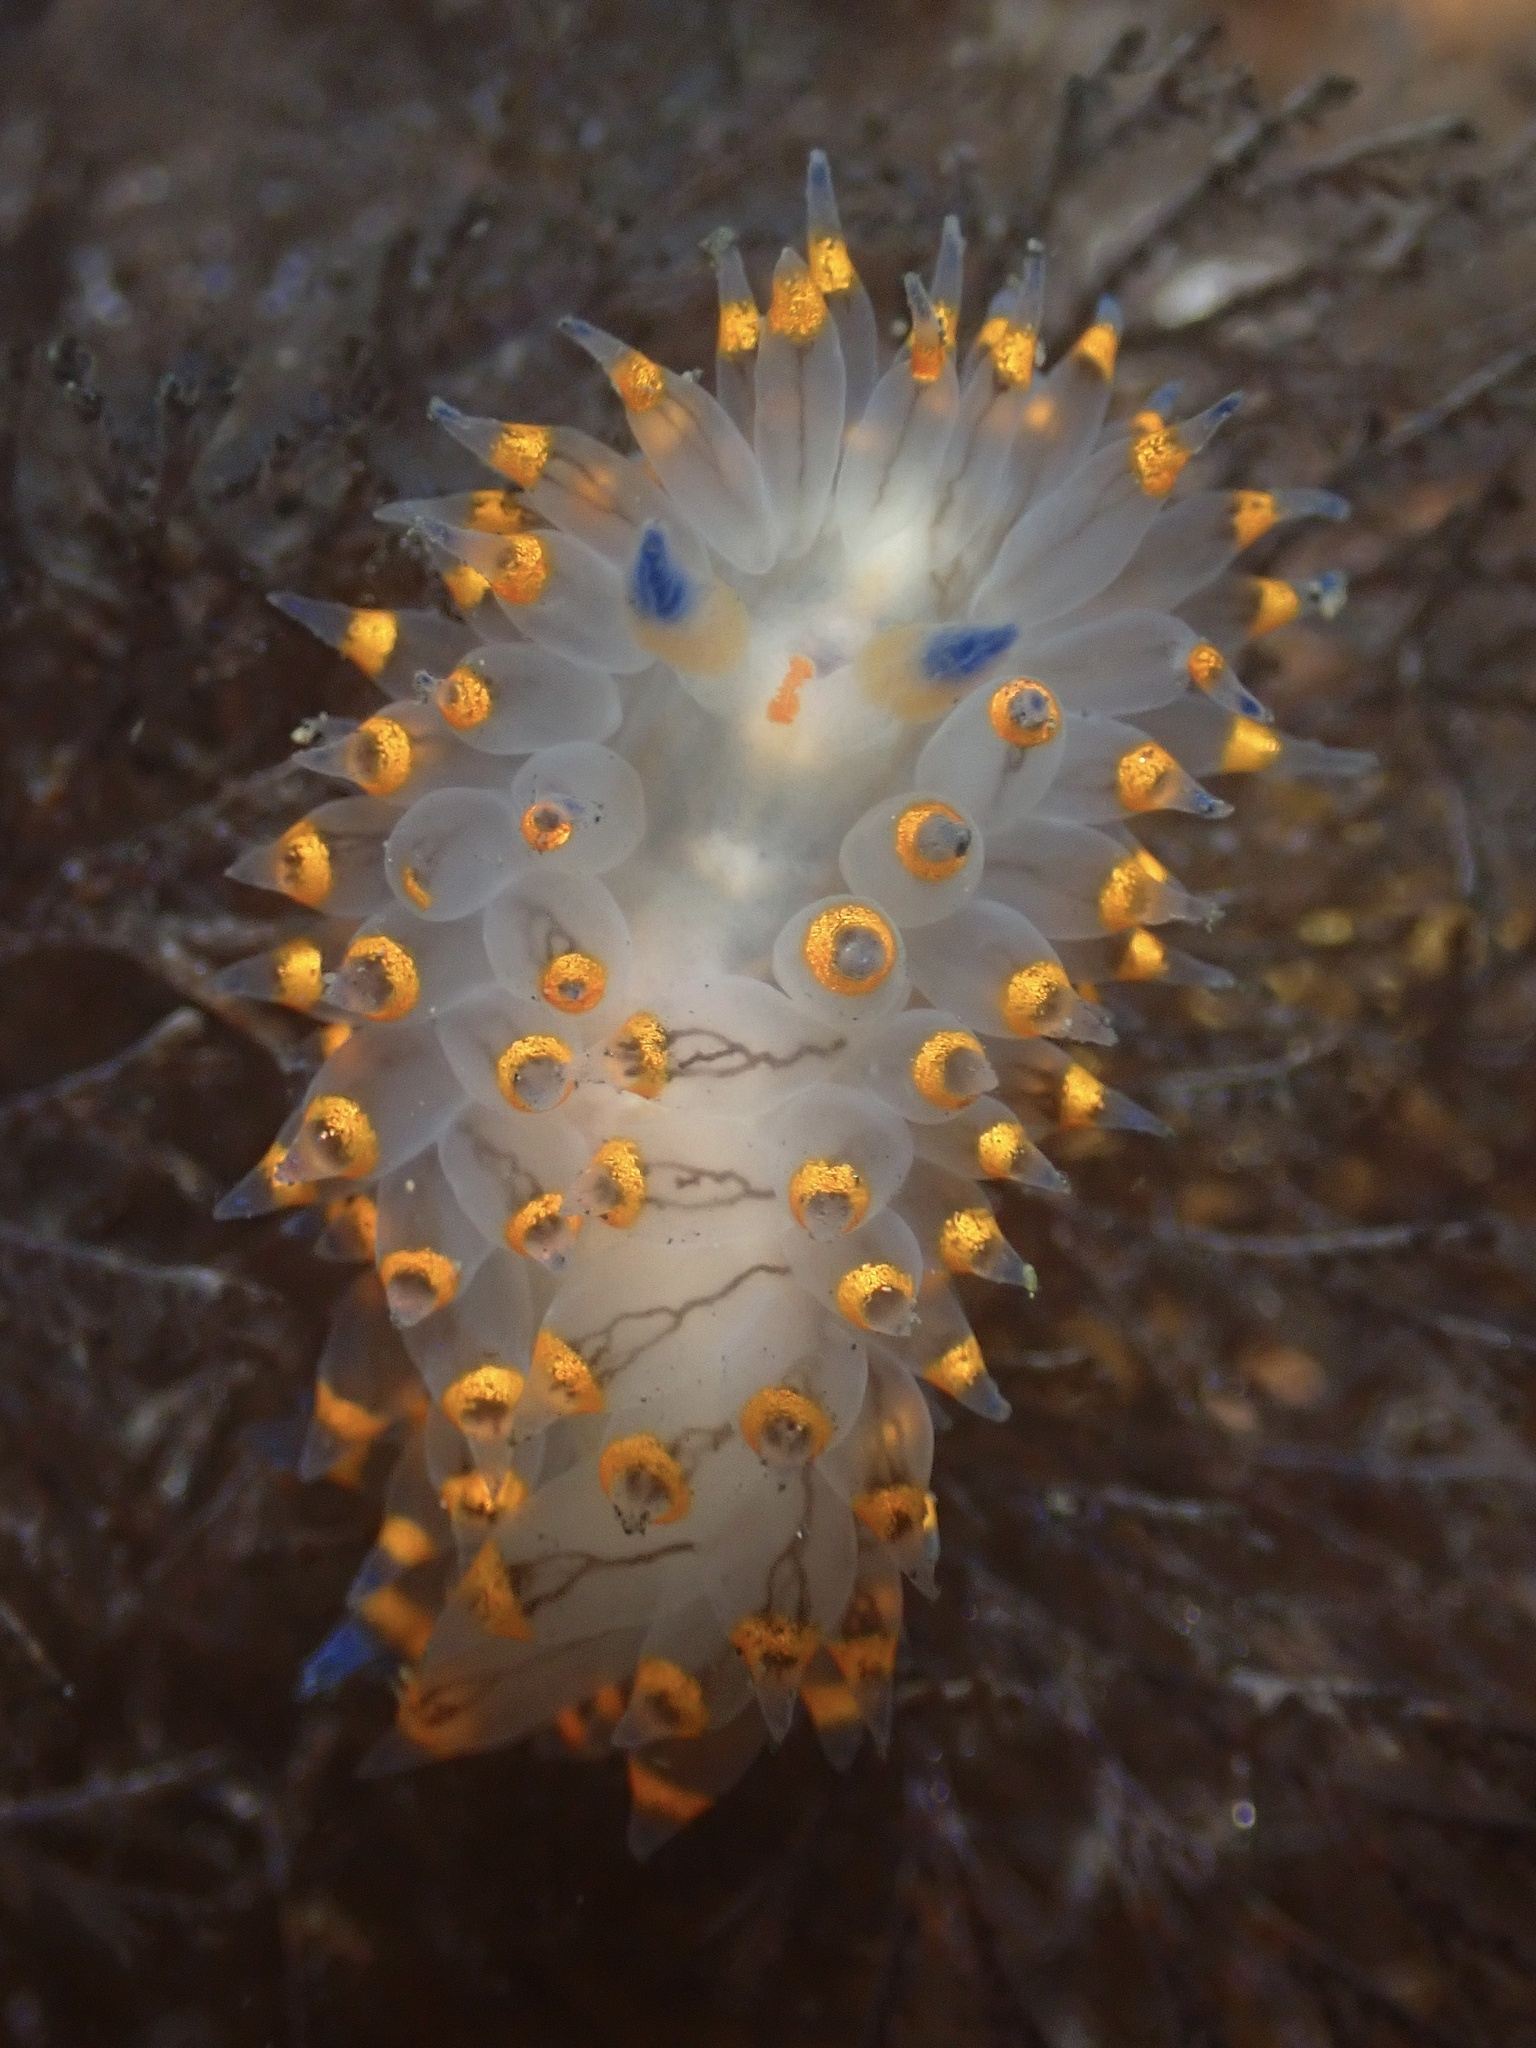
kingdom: Animalia
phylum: Mollusca
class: Gastropoda
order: Nudibranchia
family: Janolidae
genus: Antiopella
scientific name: Antiopella barbarensis
